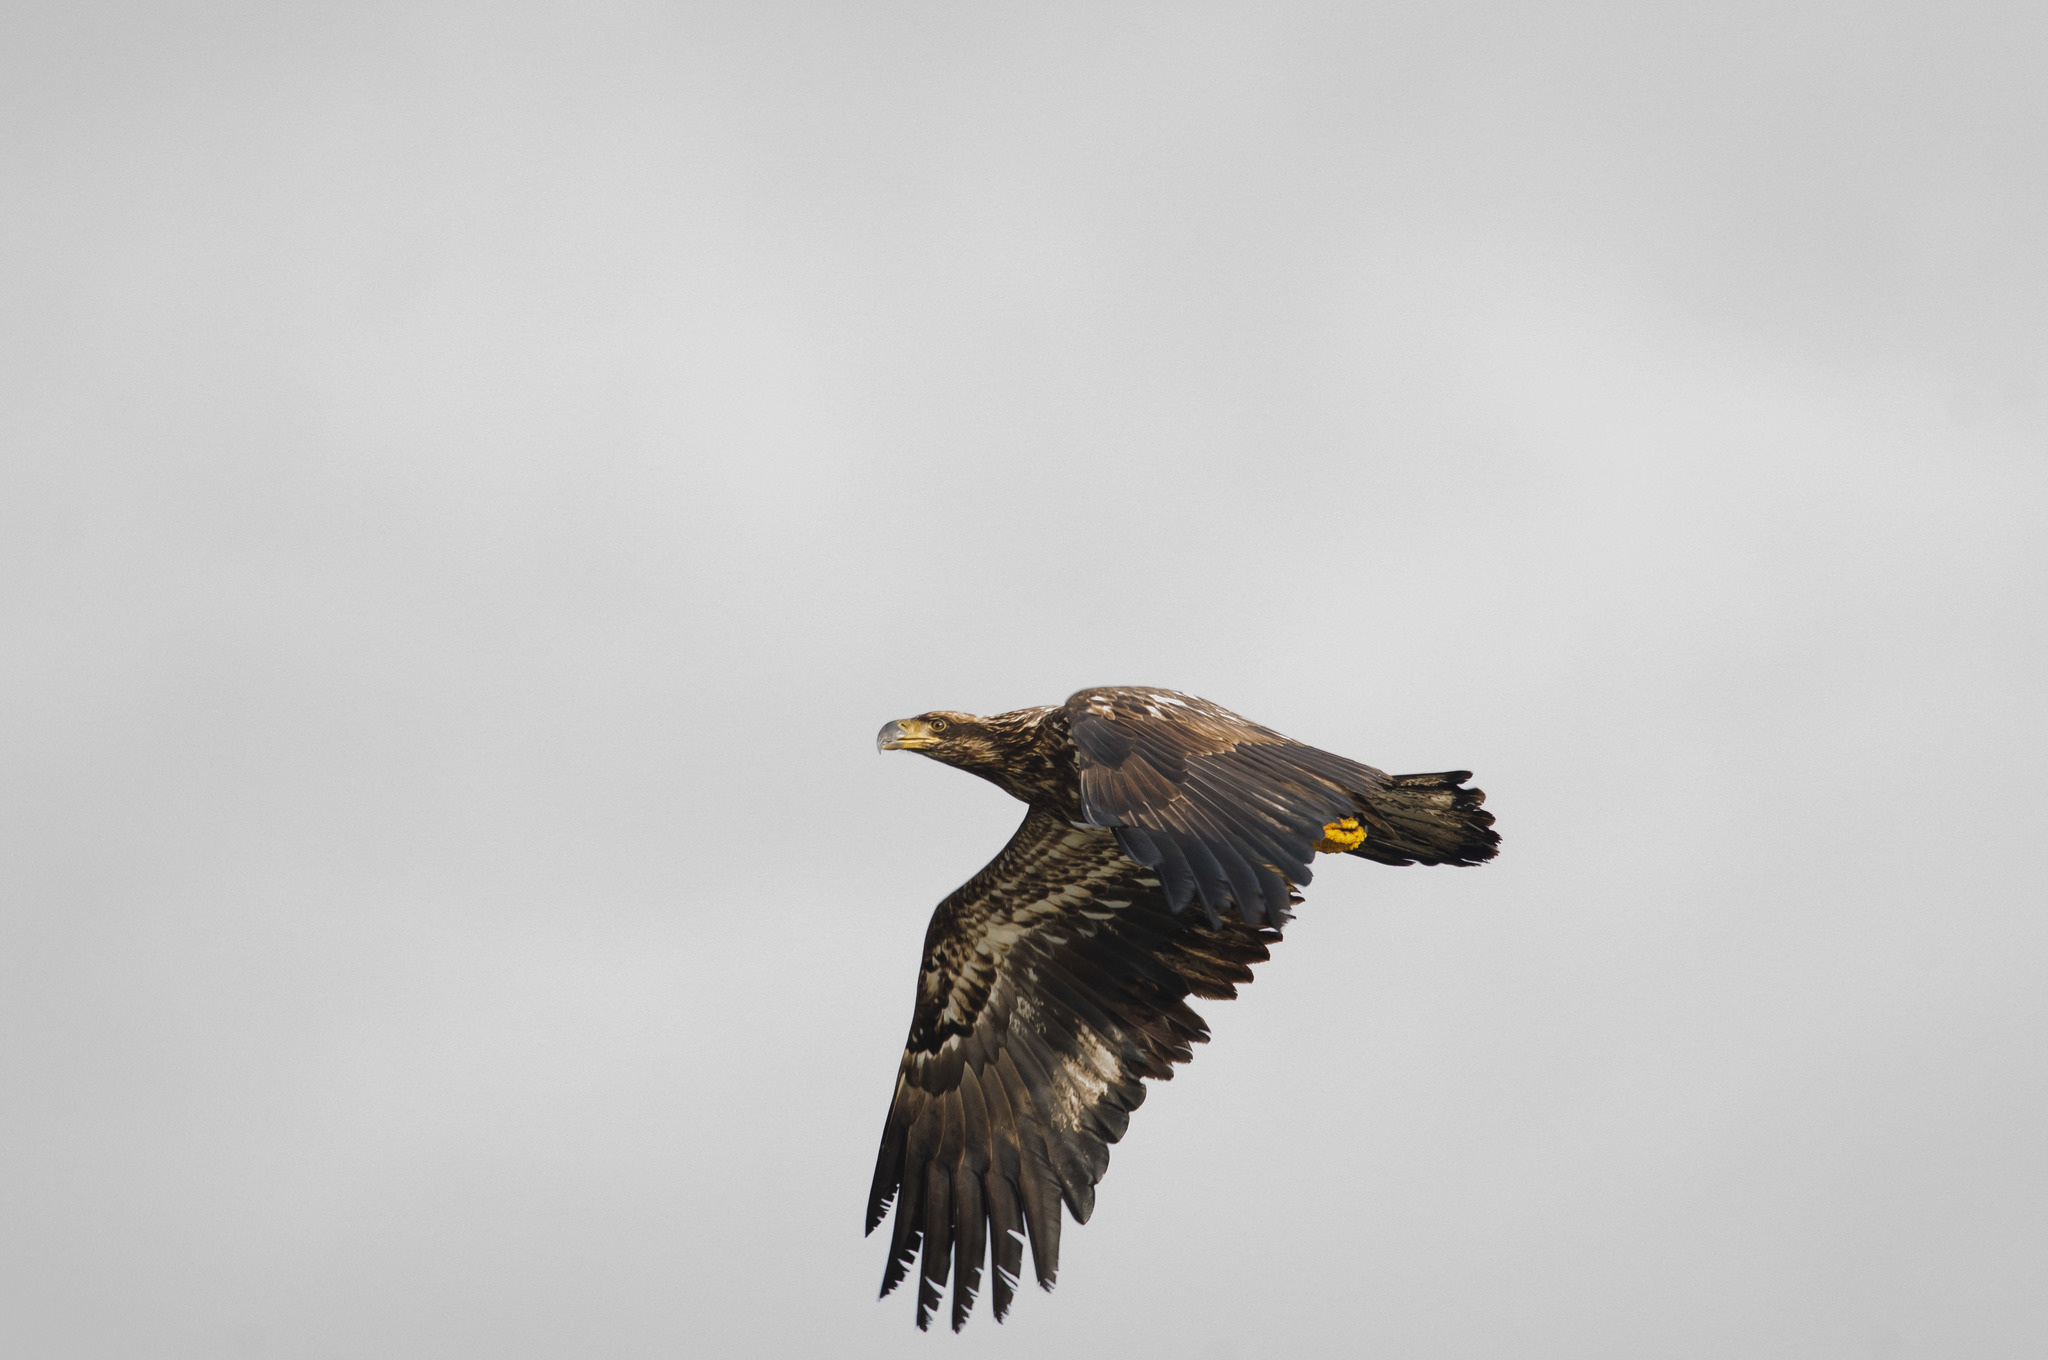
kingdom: Animalia
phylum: Chordata
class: Aves
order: Accipitriformes
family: Accipitridae
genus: Haliaeetus
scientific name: Haliaeetus leucocephalus
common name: Bald eagle
